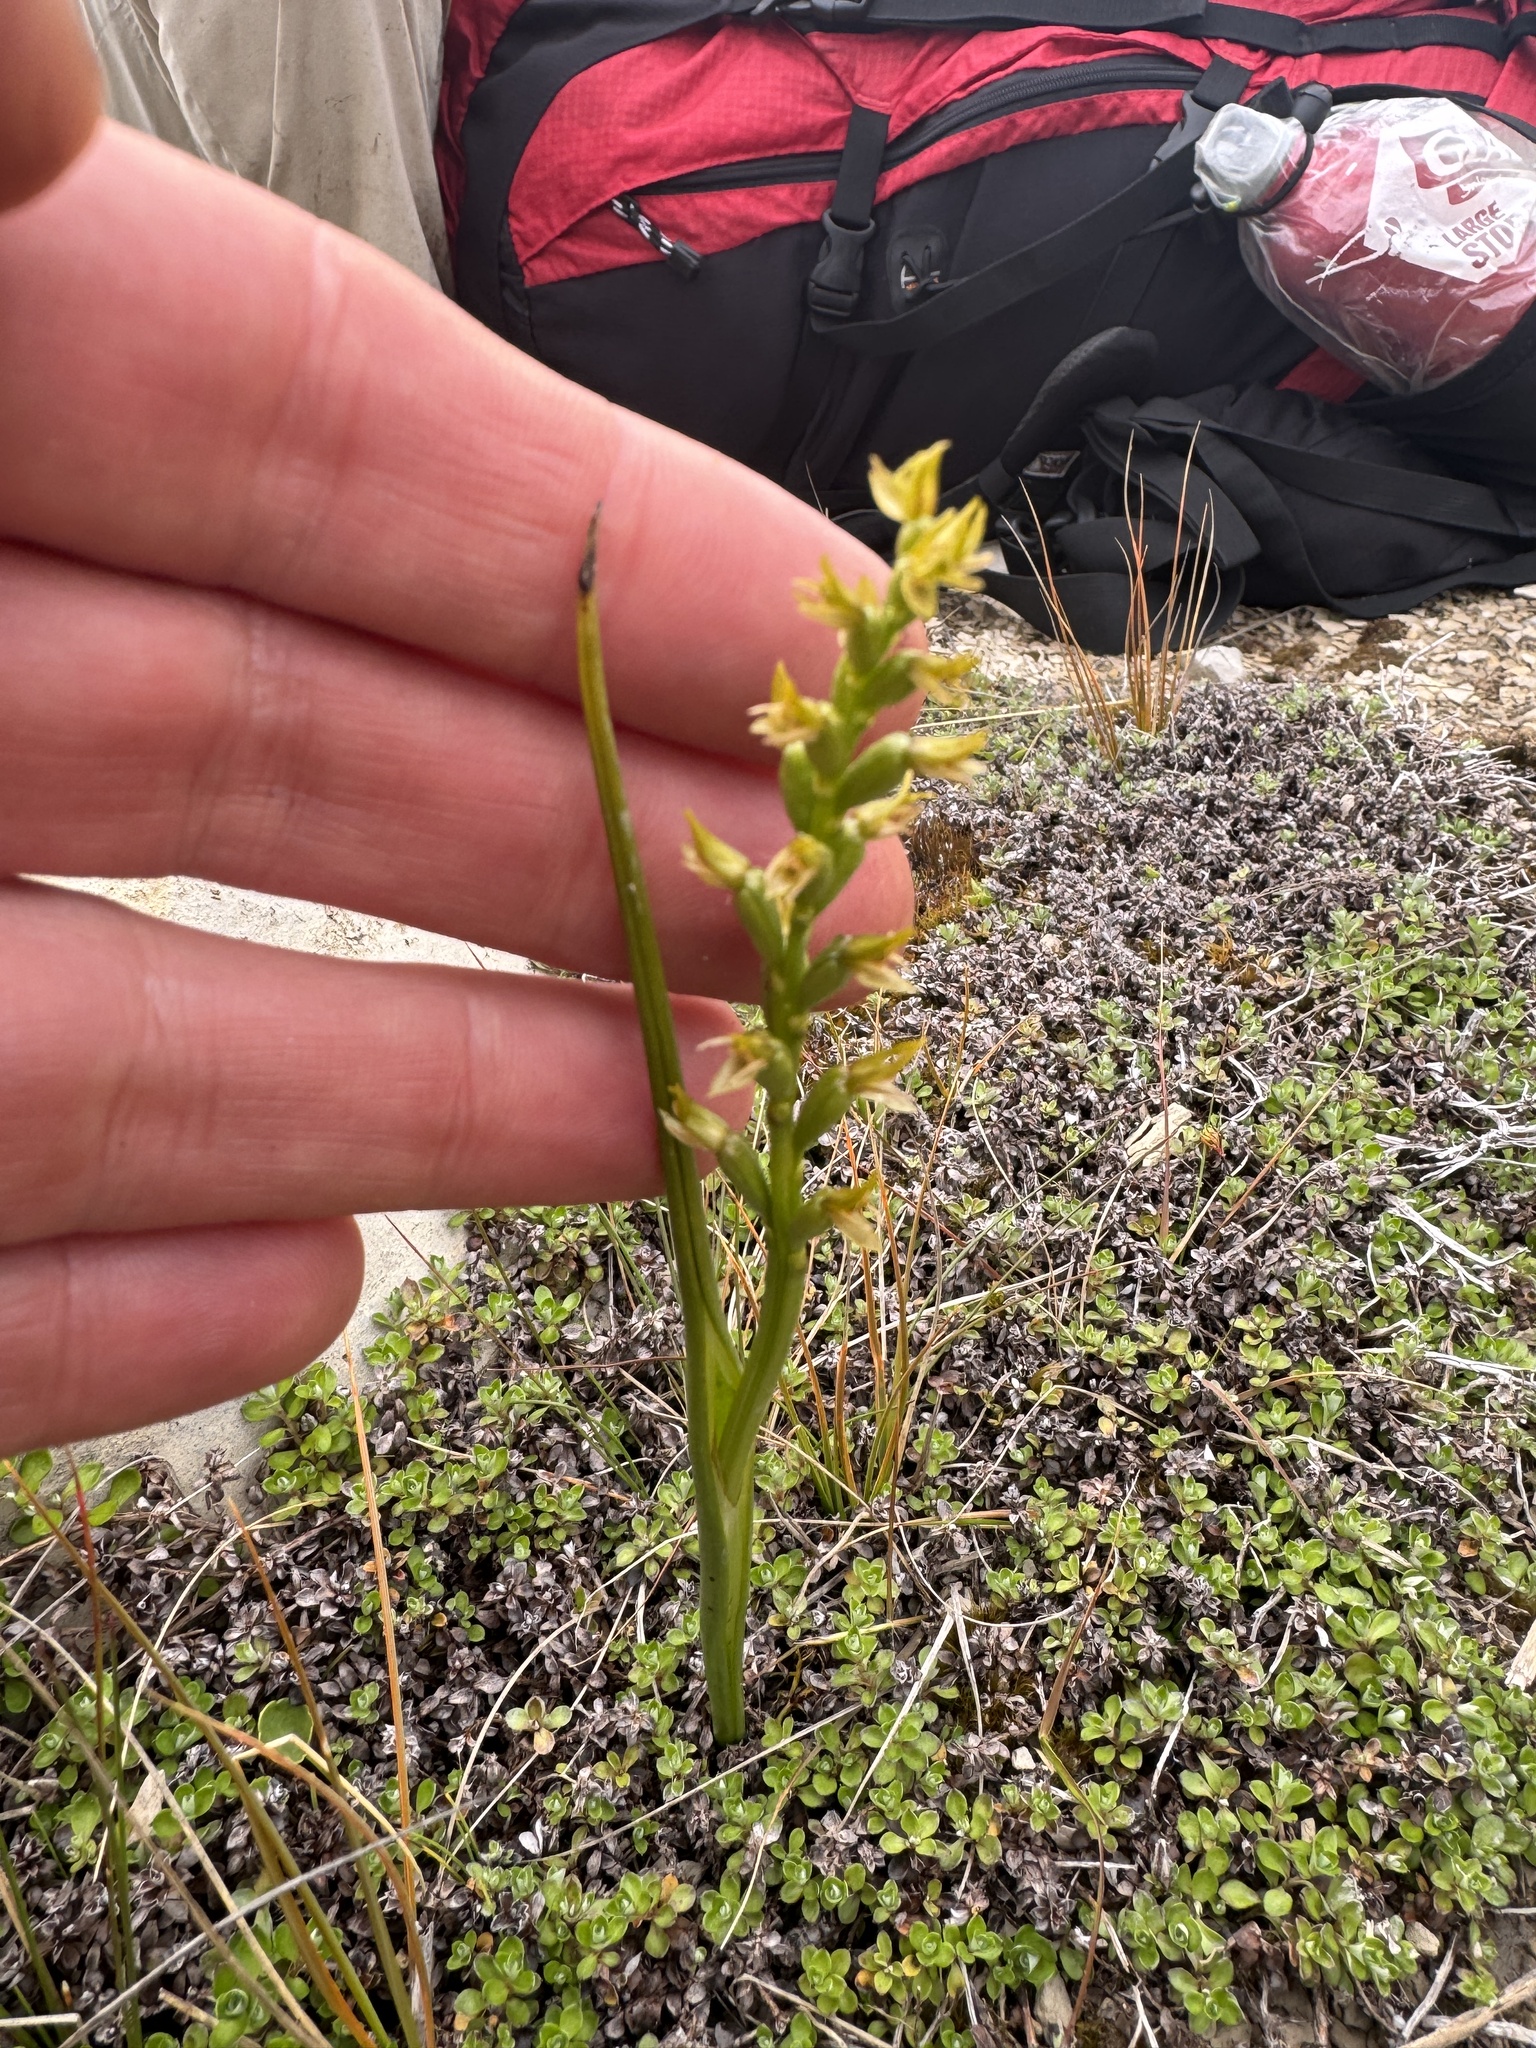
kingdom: Plantae
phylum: Tracheophyta
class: Liliopsida
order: Asparagales
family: Orchidaceae
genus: Prasophyllum
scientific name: Prasophyllum colensoi
